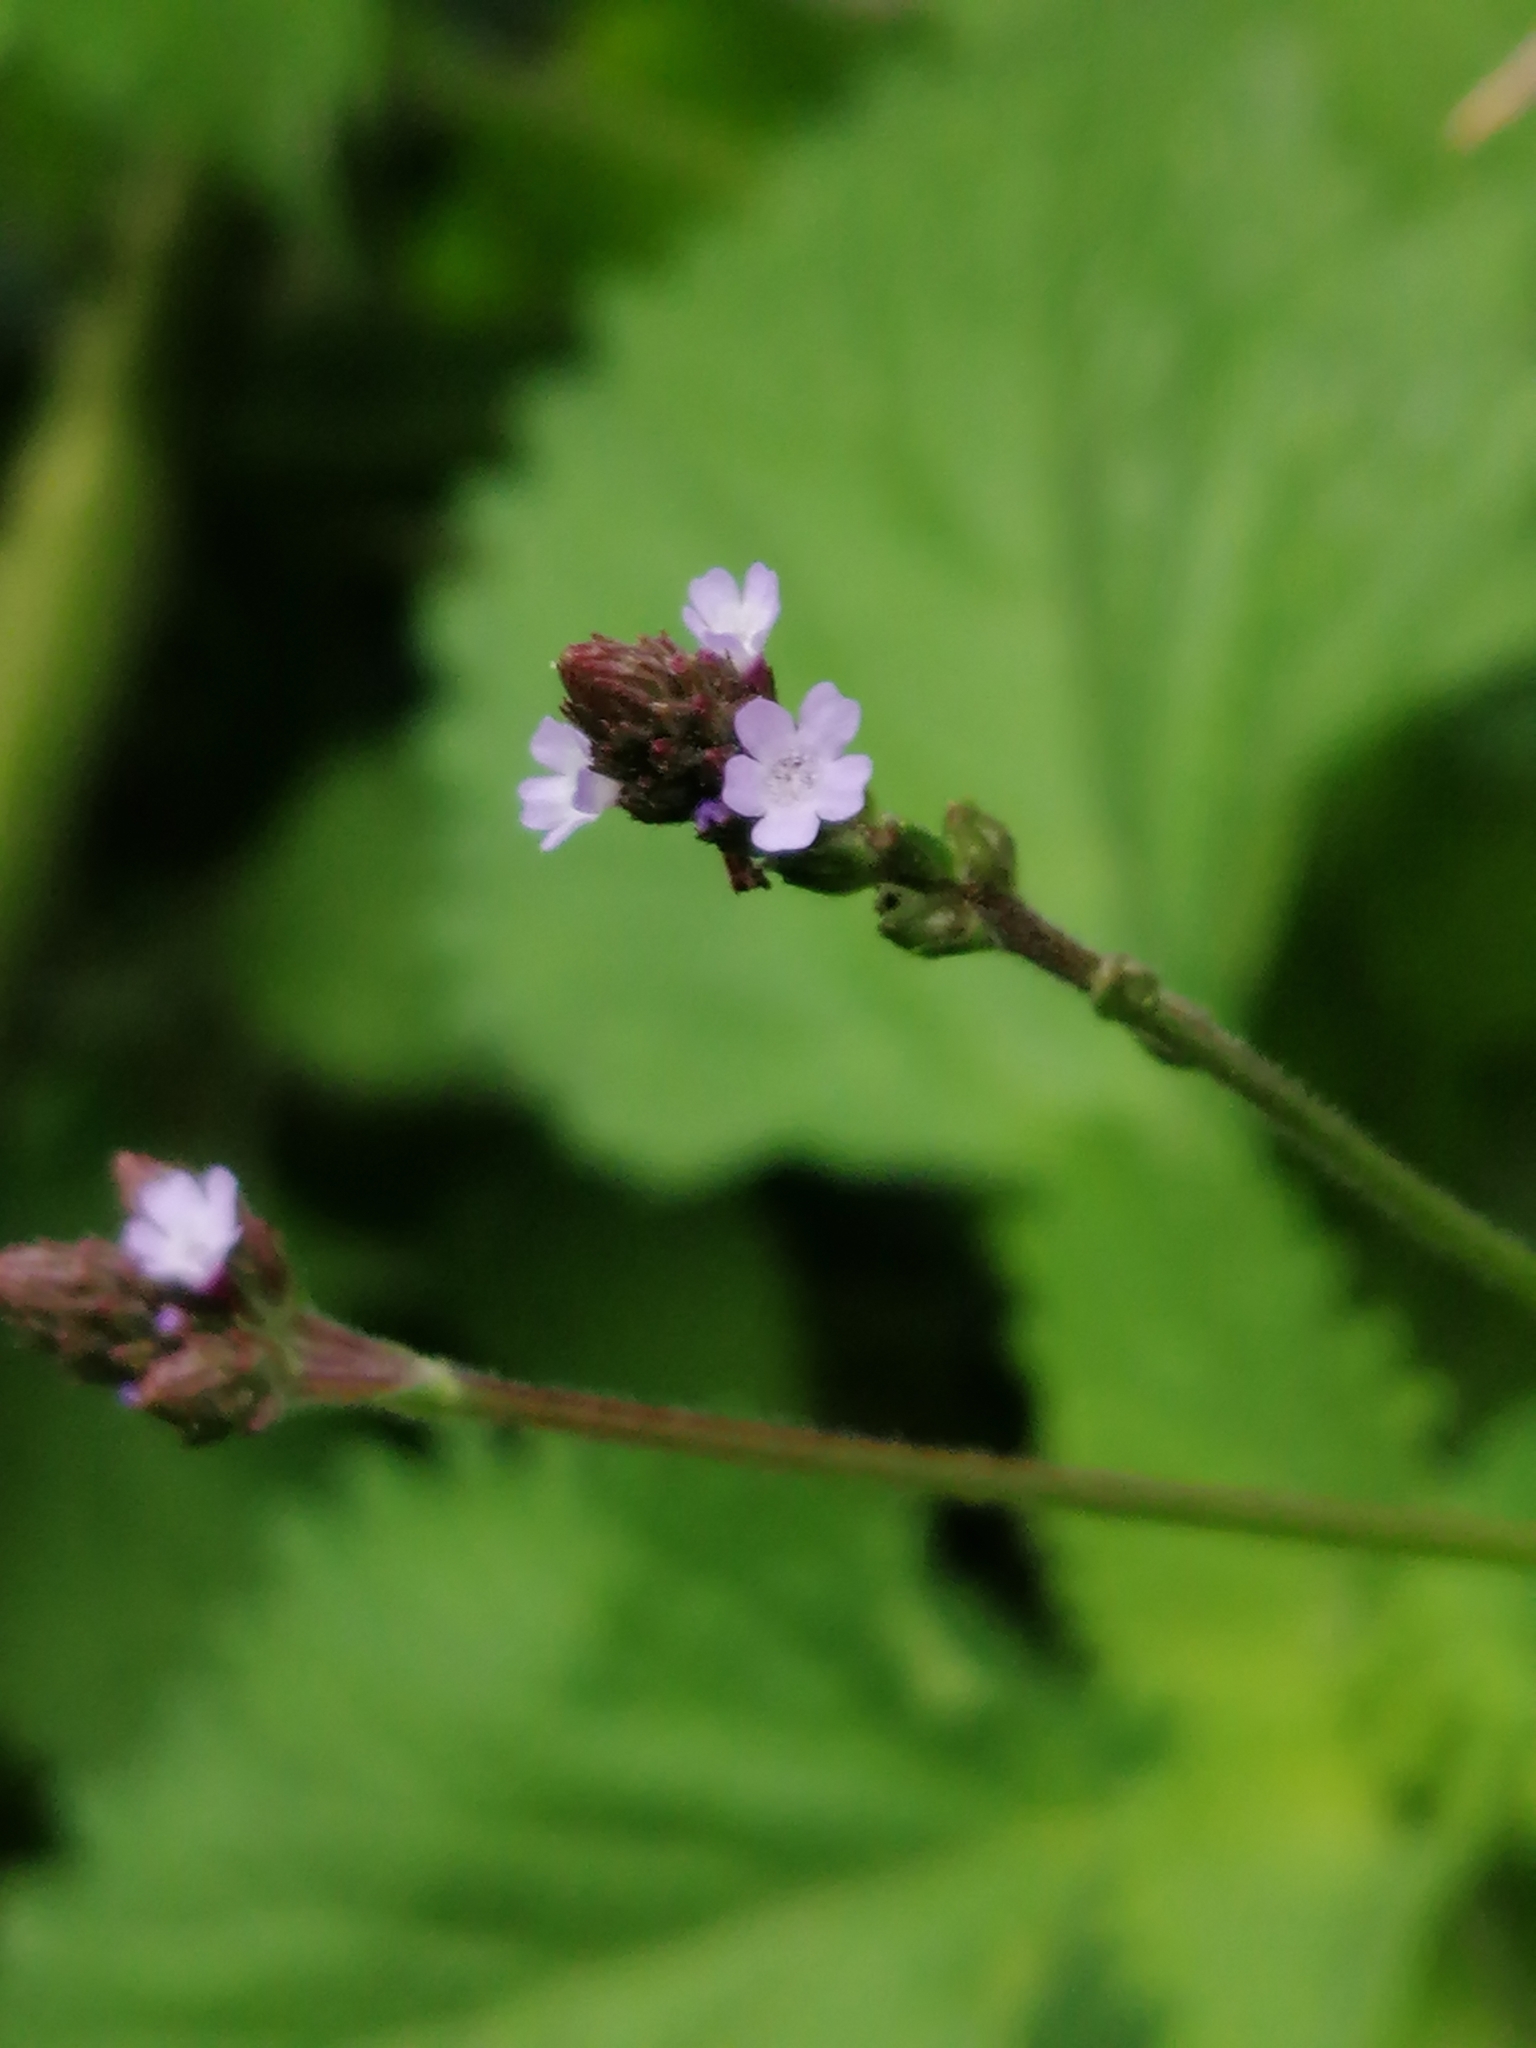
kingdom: Plantae
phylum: Tracheophyta
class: Magnoliopsida
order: Lamiales
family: Verbenaceae
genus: Verbena
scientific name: Verbena litoralis
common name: Seashore vervain
